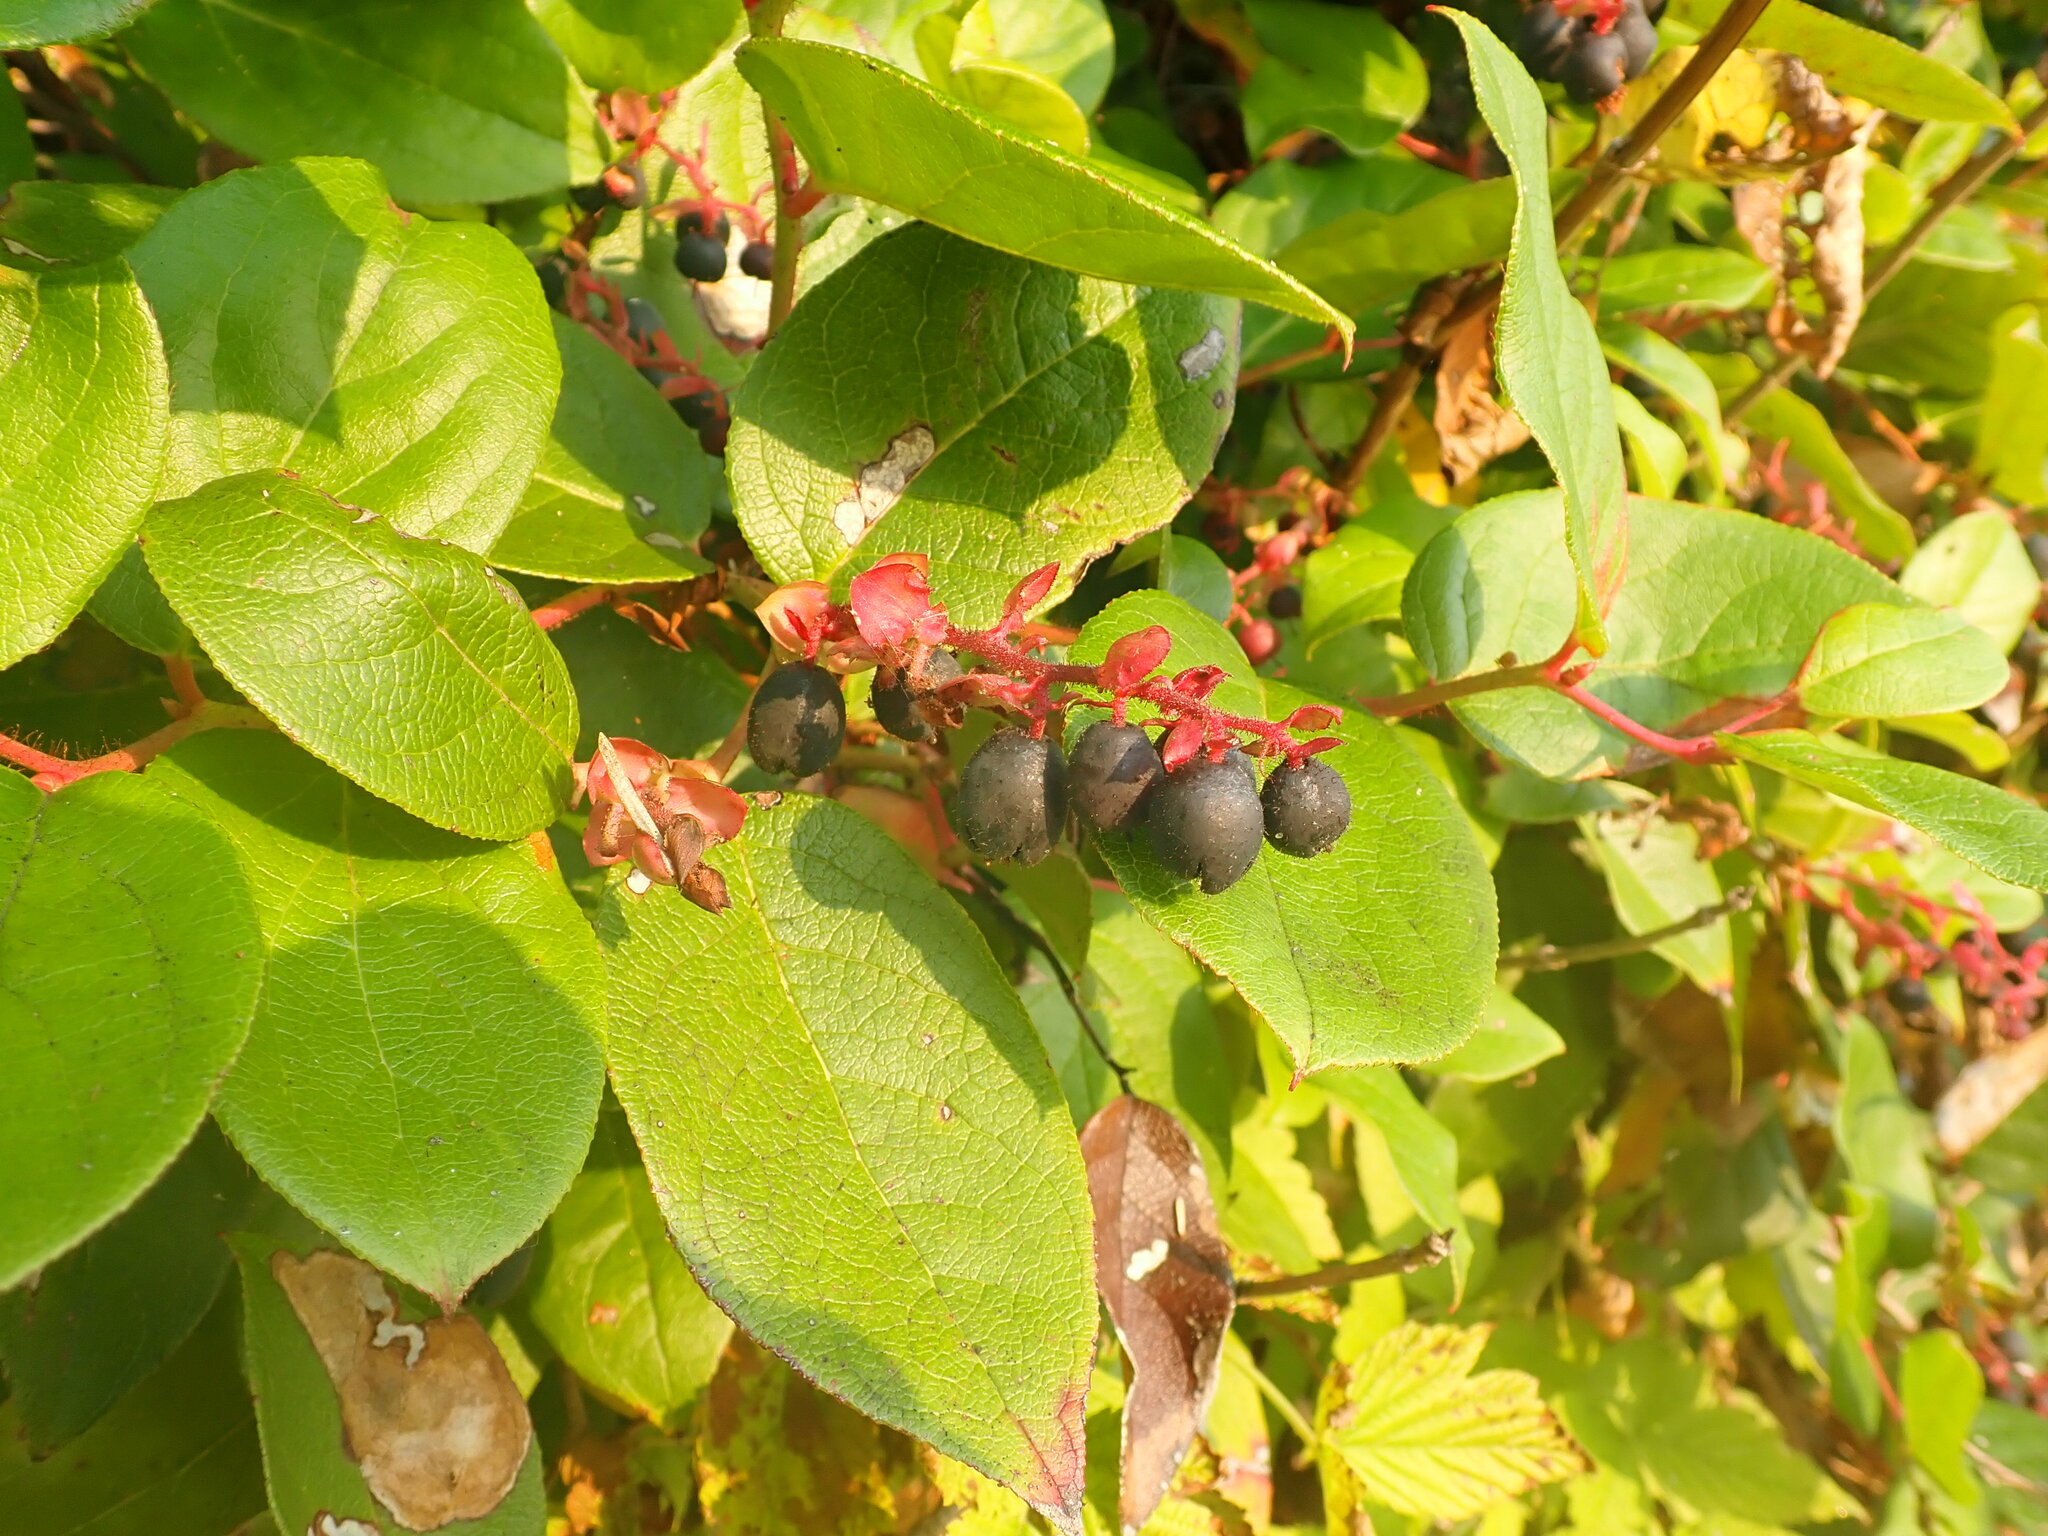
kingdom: Plantae
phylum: Tracheophyta
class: Magnoliopsida
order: Ericales
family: Ericaceae
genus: Gaultheria
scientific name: Gaultheria shallon
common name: Shallon
